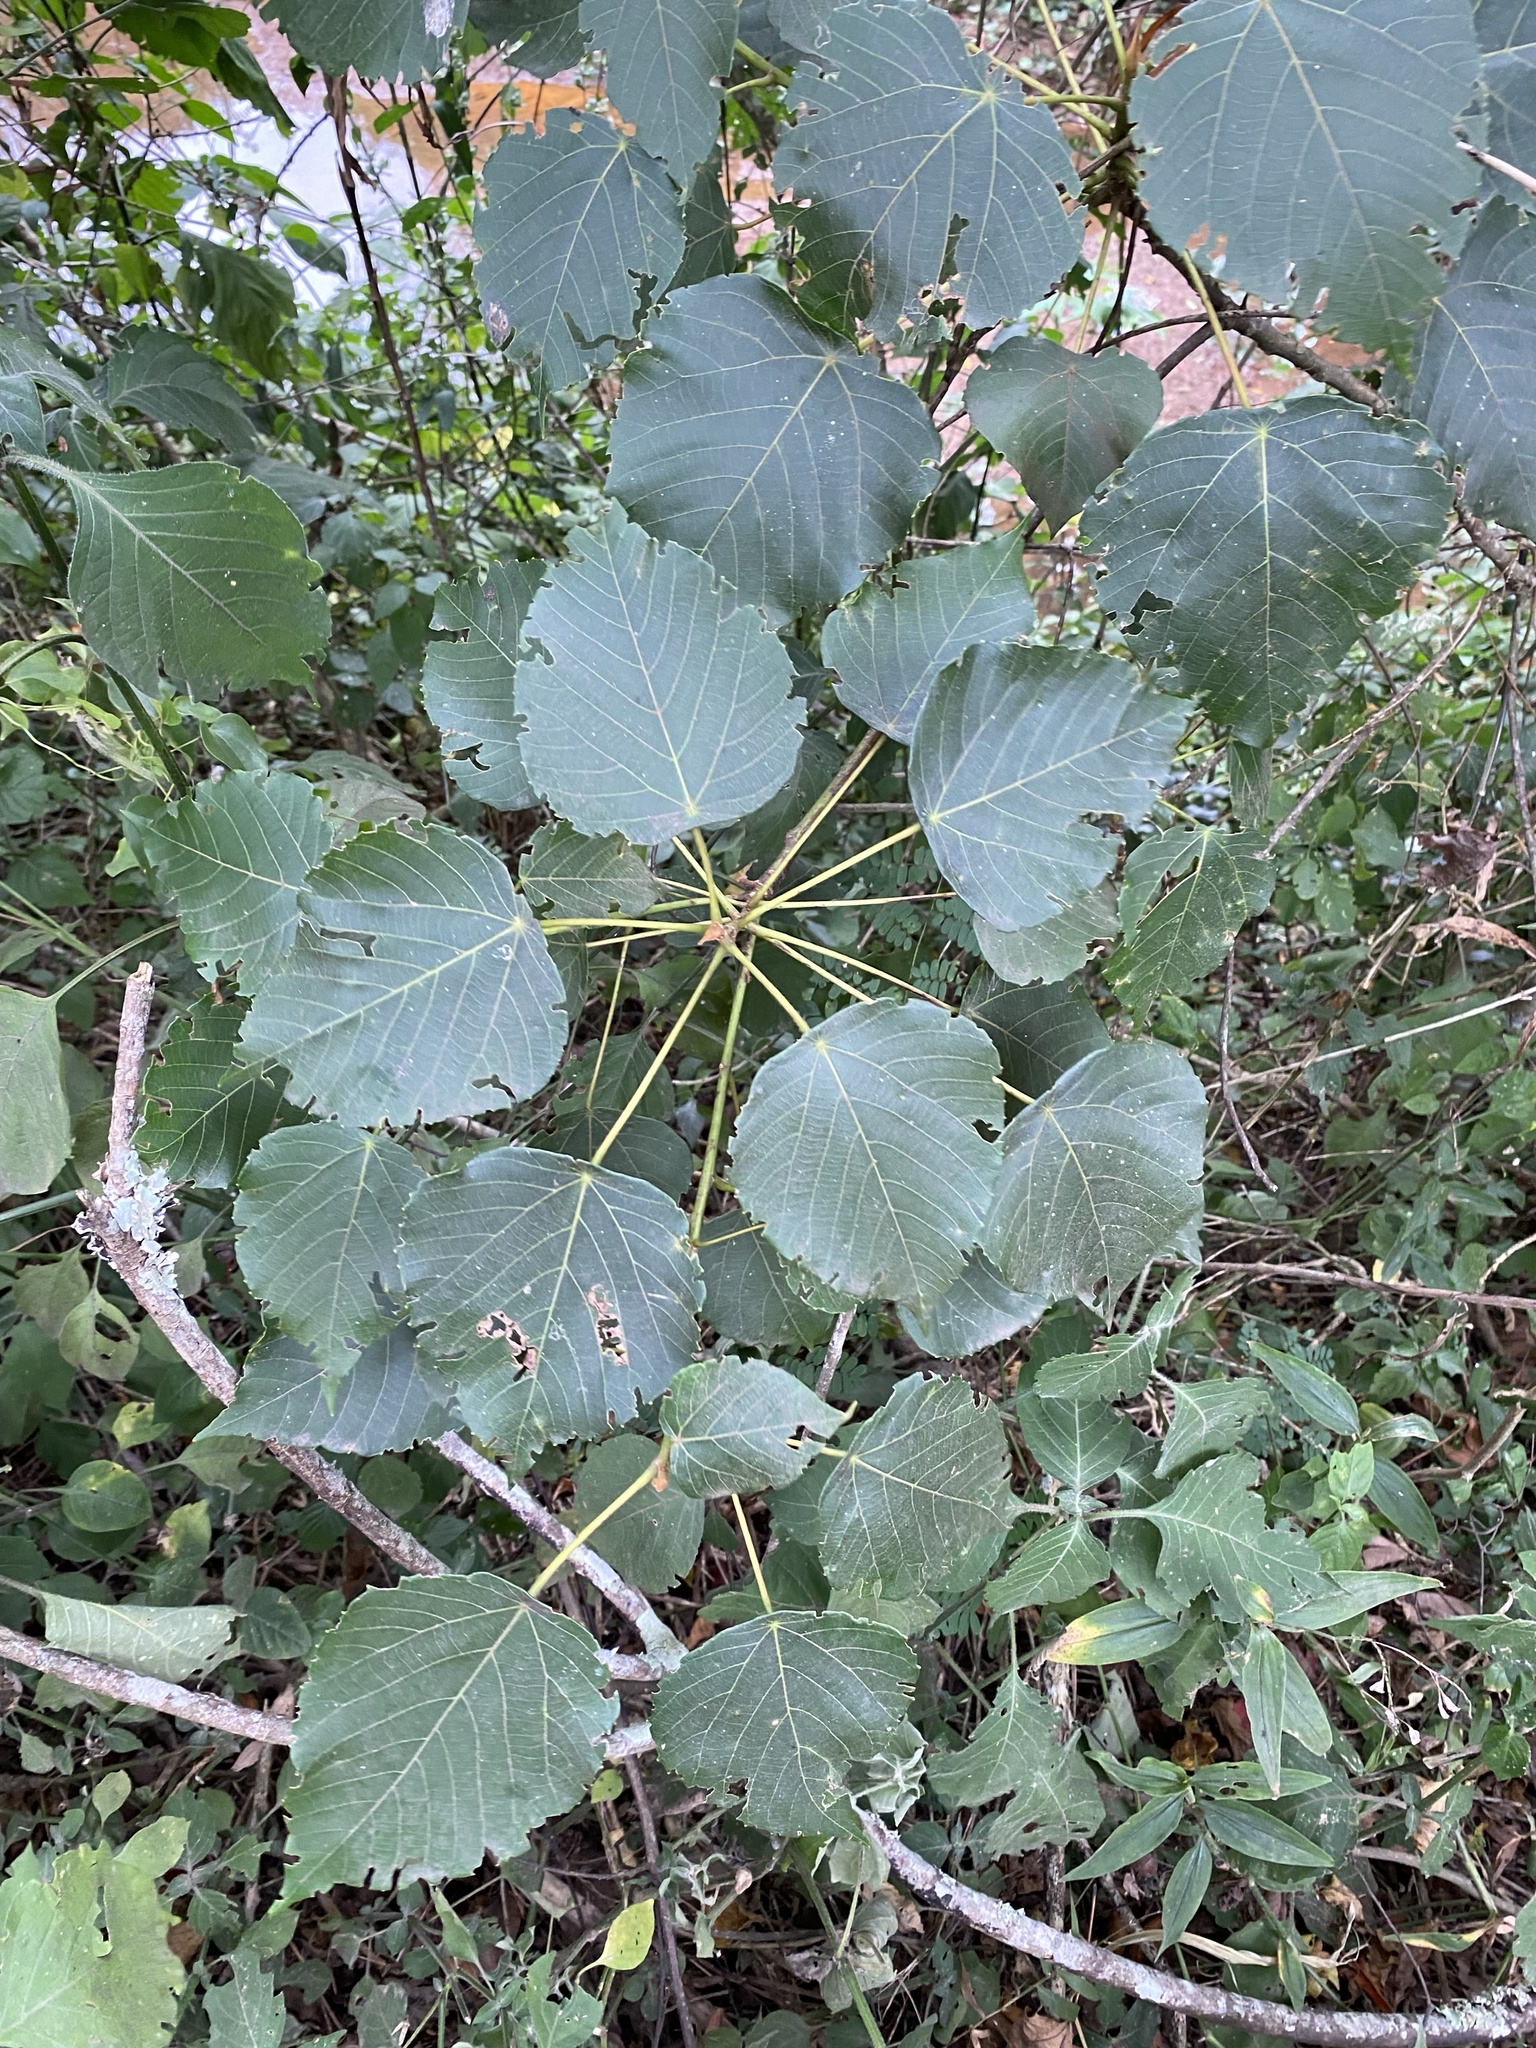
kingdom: Plantae
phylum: Tracheophyta
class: Magnoliopsida
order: Malpighiales
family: Euphorbiaceae
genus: Macaranga
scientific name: Macaranga capensis
